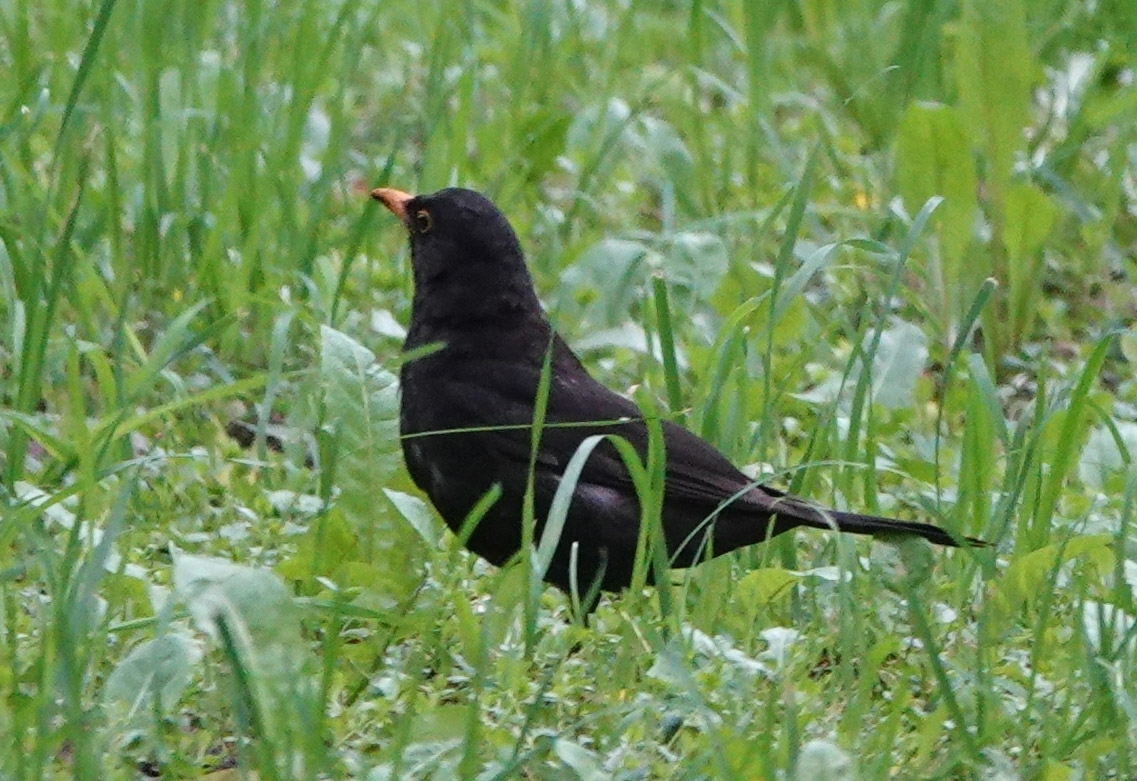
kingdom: Animalia
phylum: Chordata
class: Aves
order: Passeriformes
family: Turdidae
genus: Turdus
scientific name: Turdus merula
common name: Common blackbird
